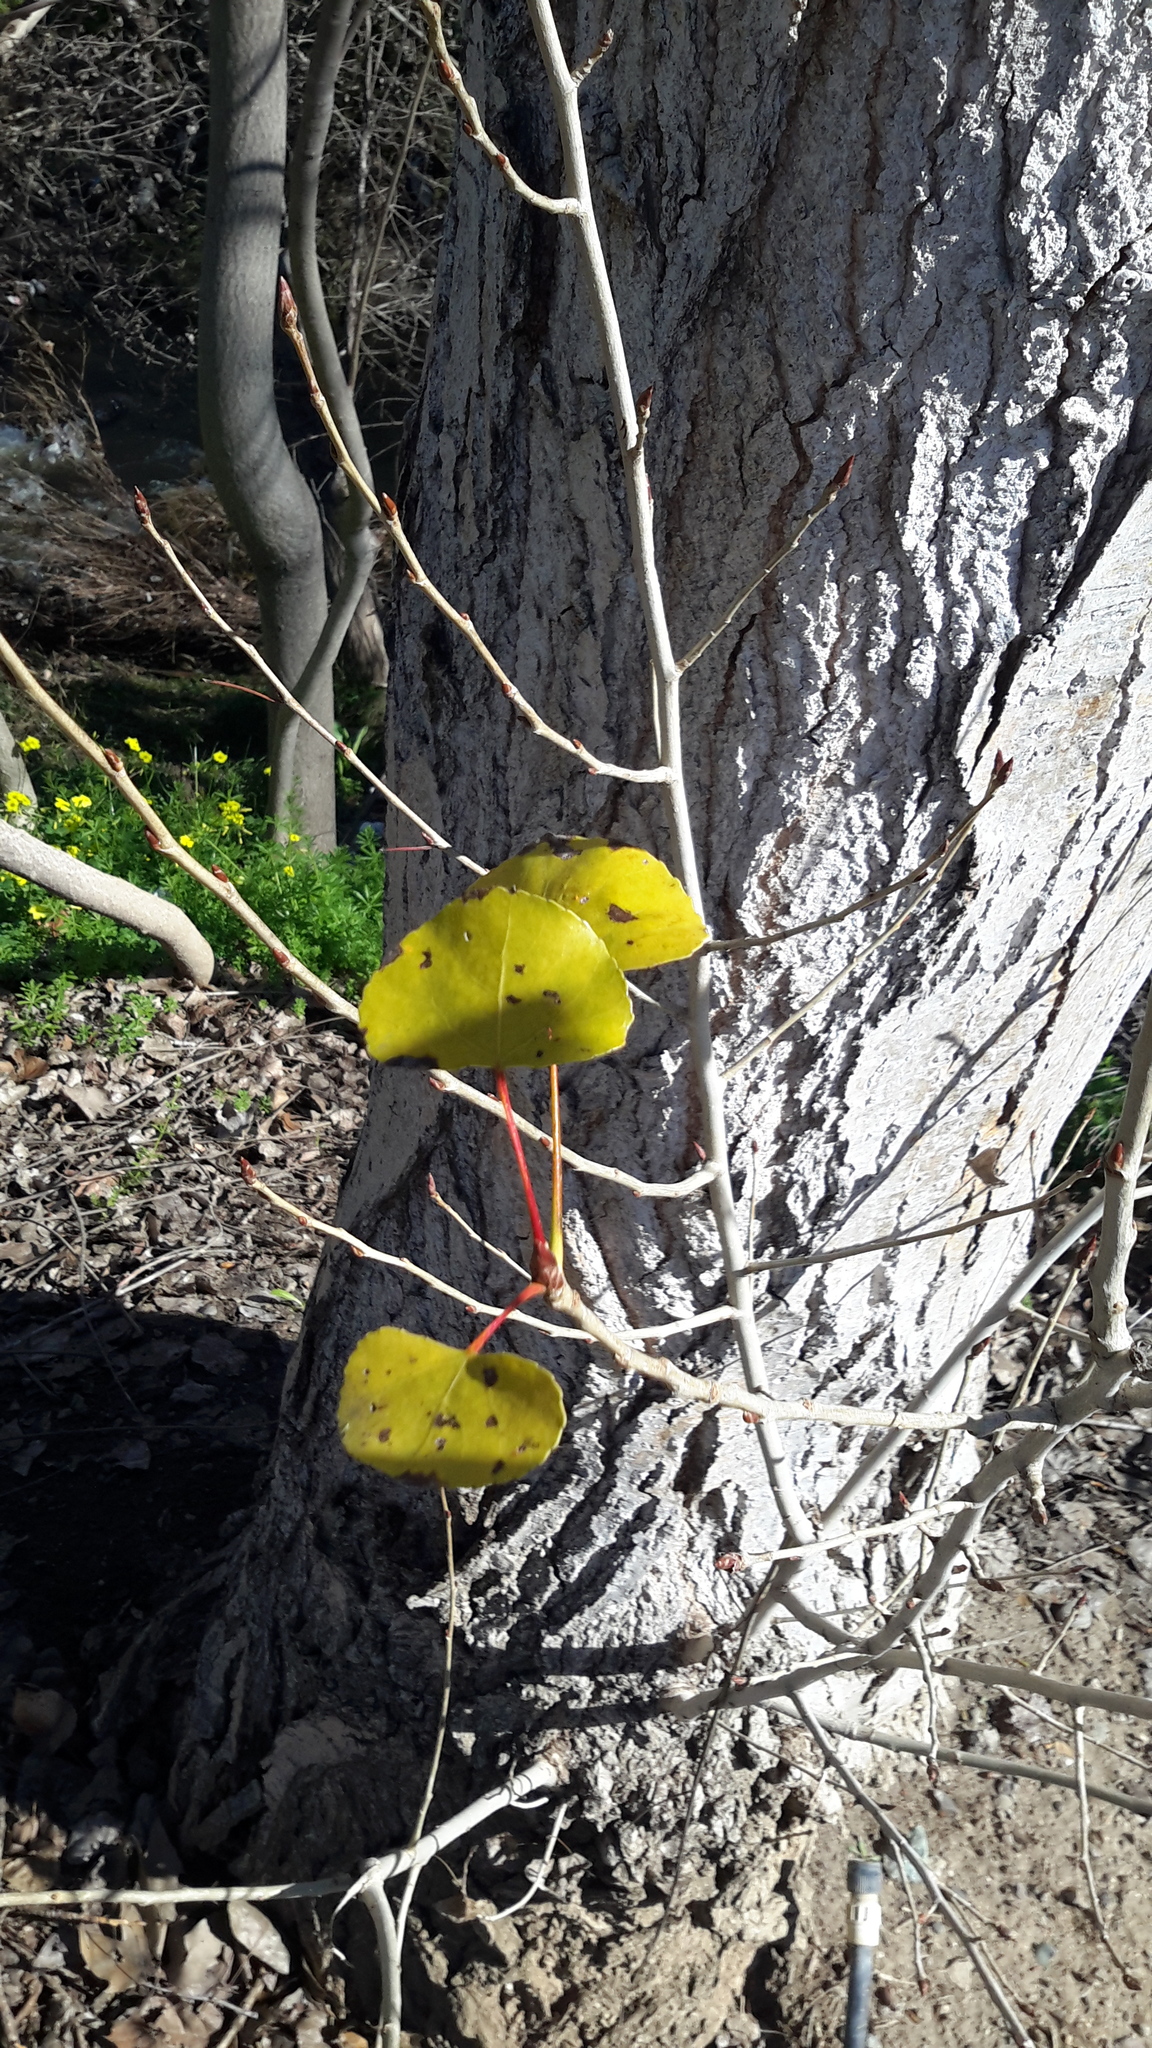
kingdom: Plantae
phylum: Tracheophyta
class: Magnoliopsida
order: Malpighiales
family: Salicaceae
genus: Populus
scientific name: Populus fremontii
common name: Fremont's cottonwood
